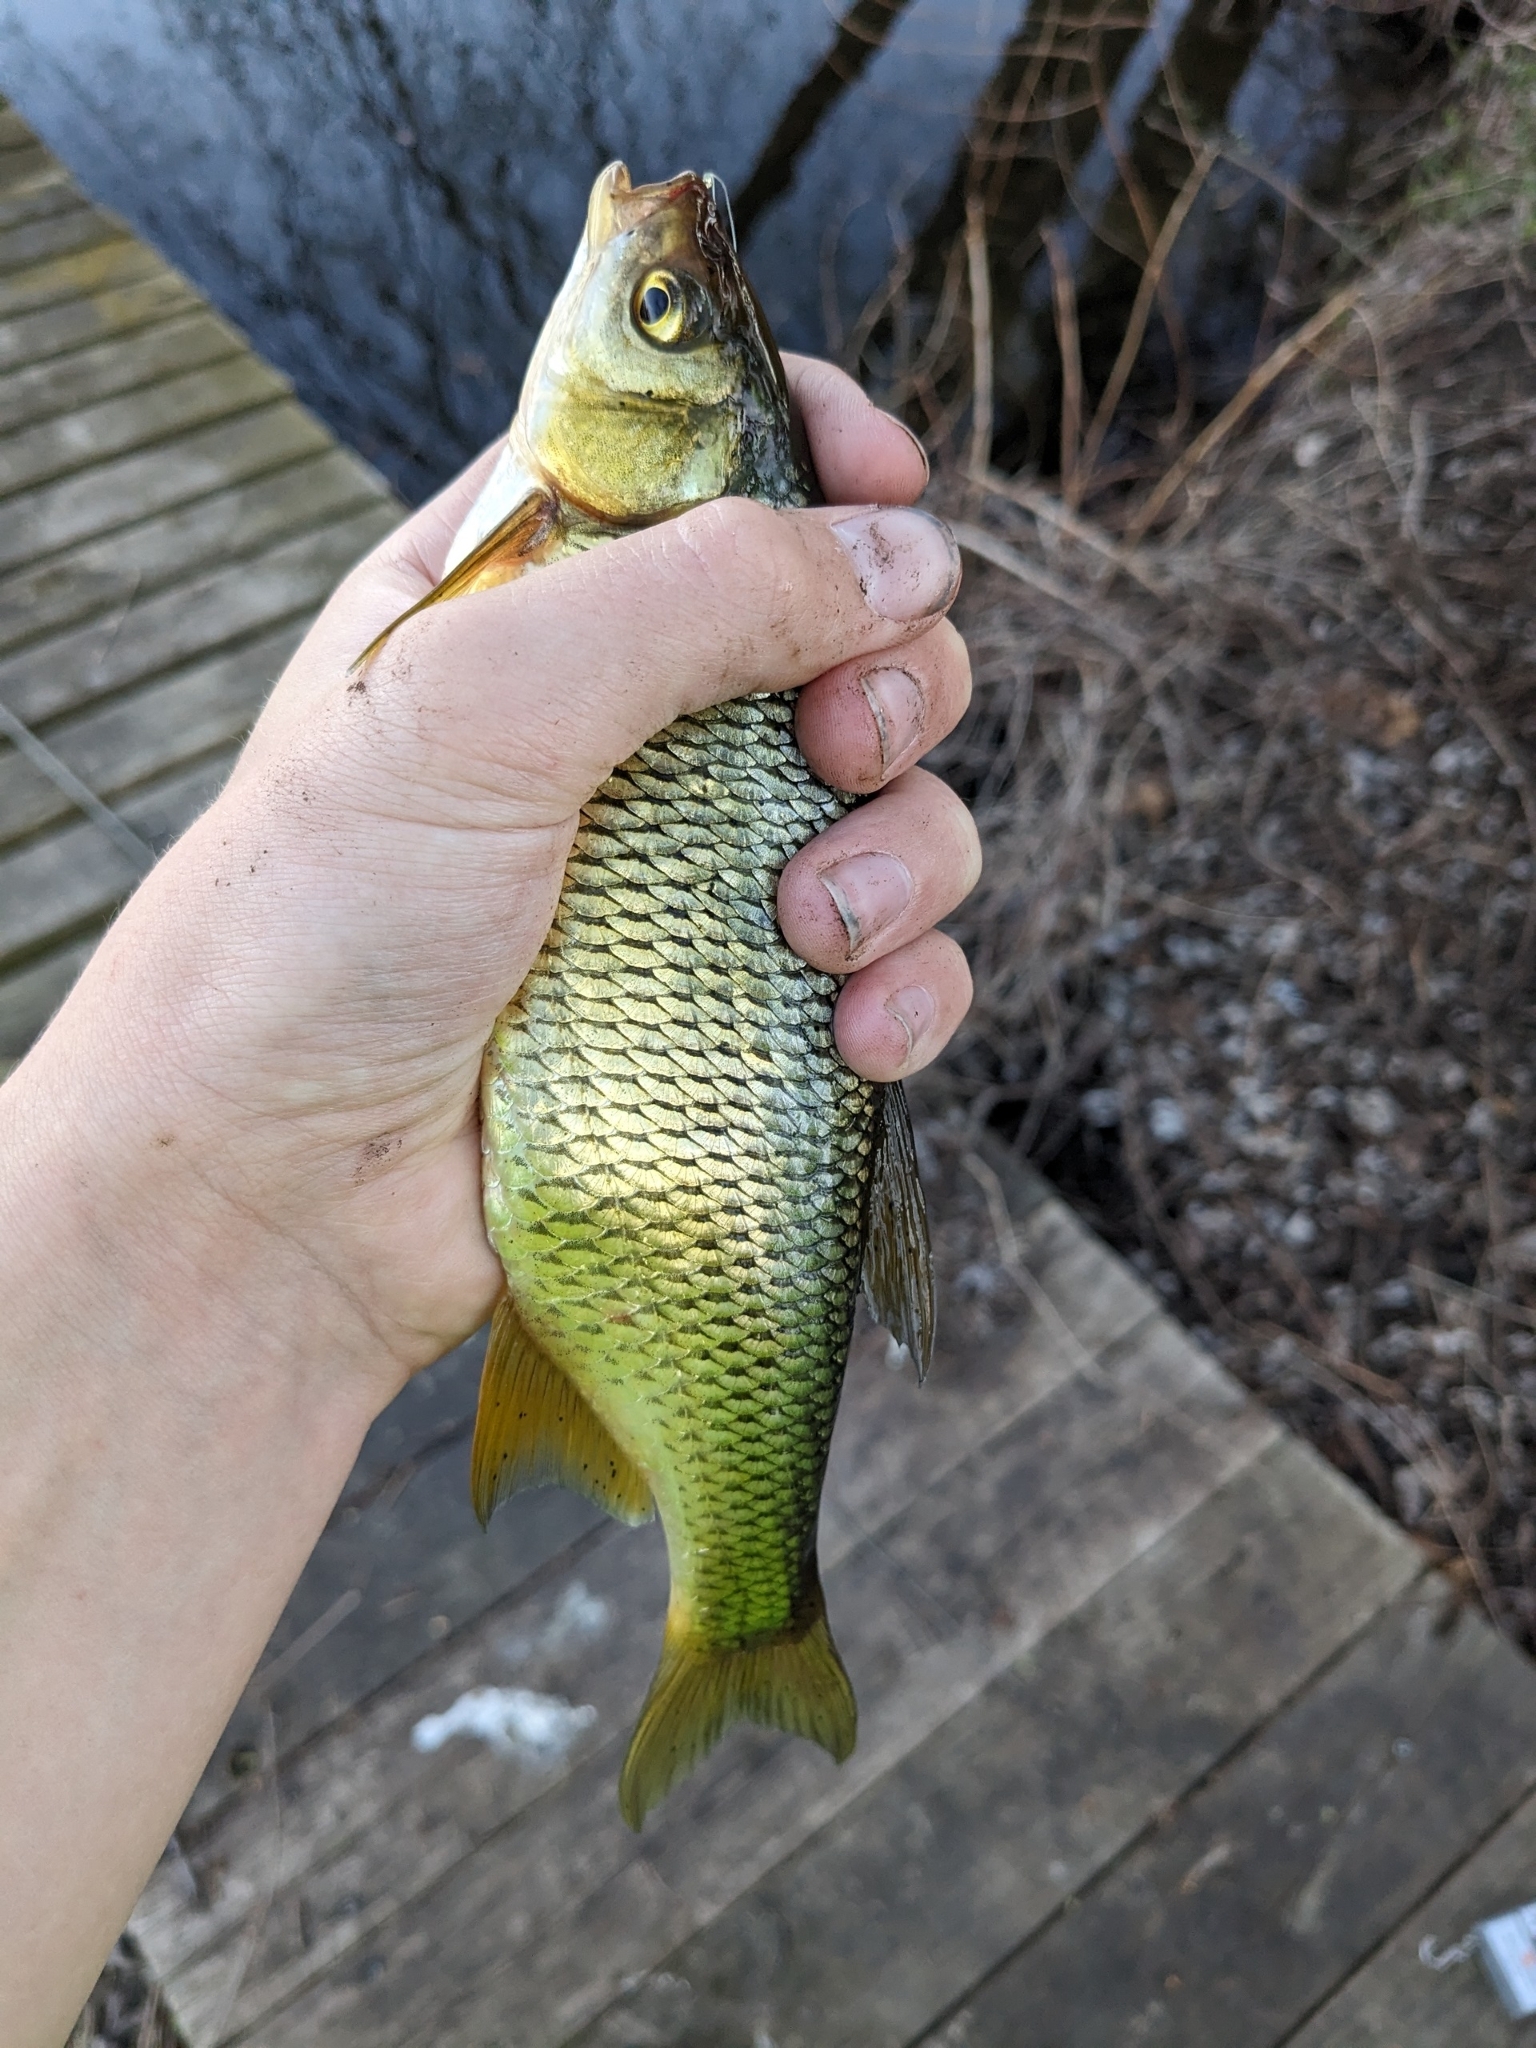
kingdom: Animalia
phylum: Chordata
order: Cypriniformes
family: Cyprinidae
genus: Notemigonus
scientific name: Notemigonus crysoleucas
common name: Golden shiner
